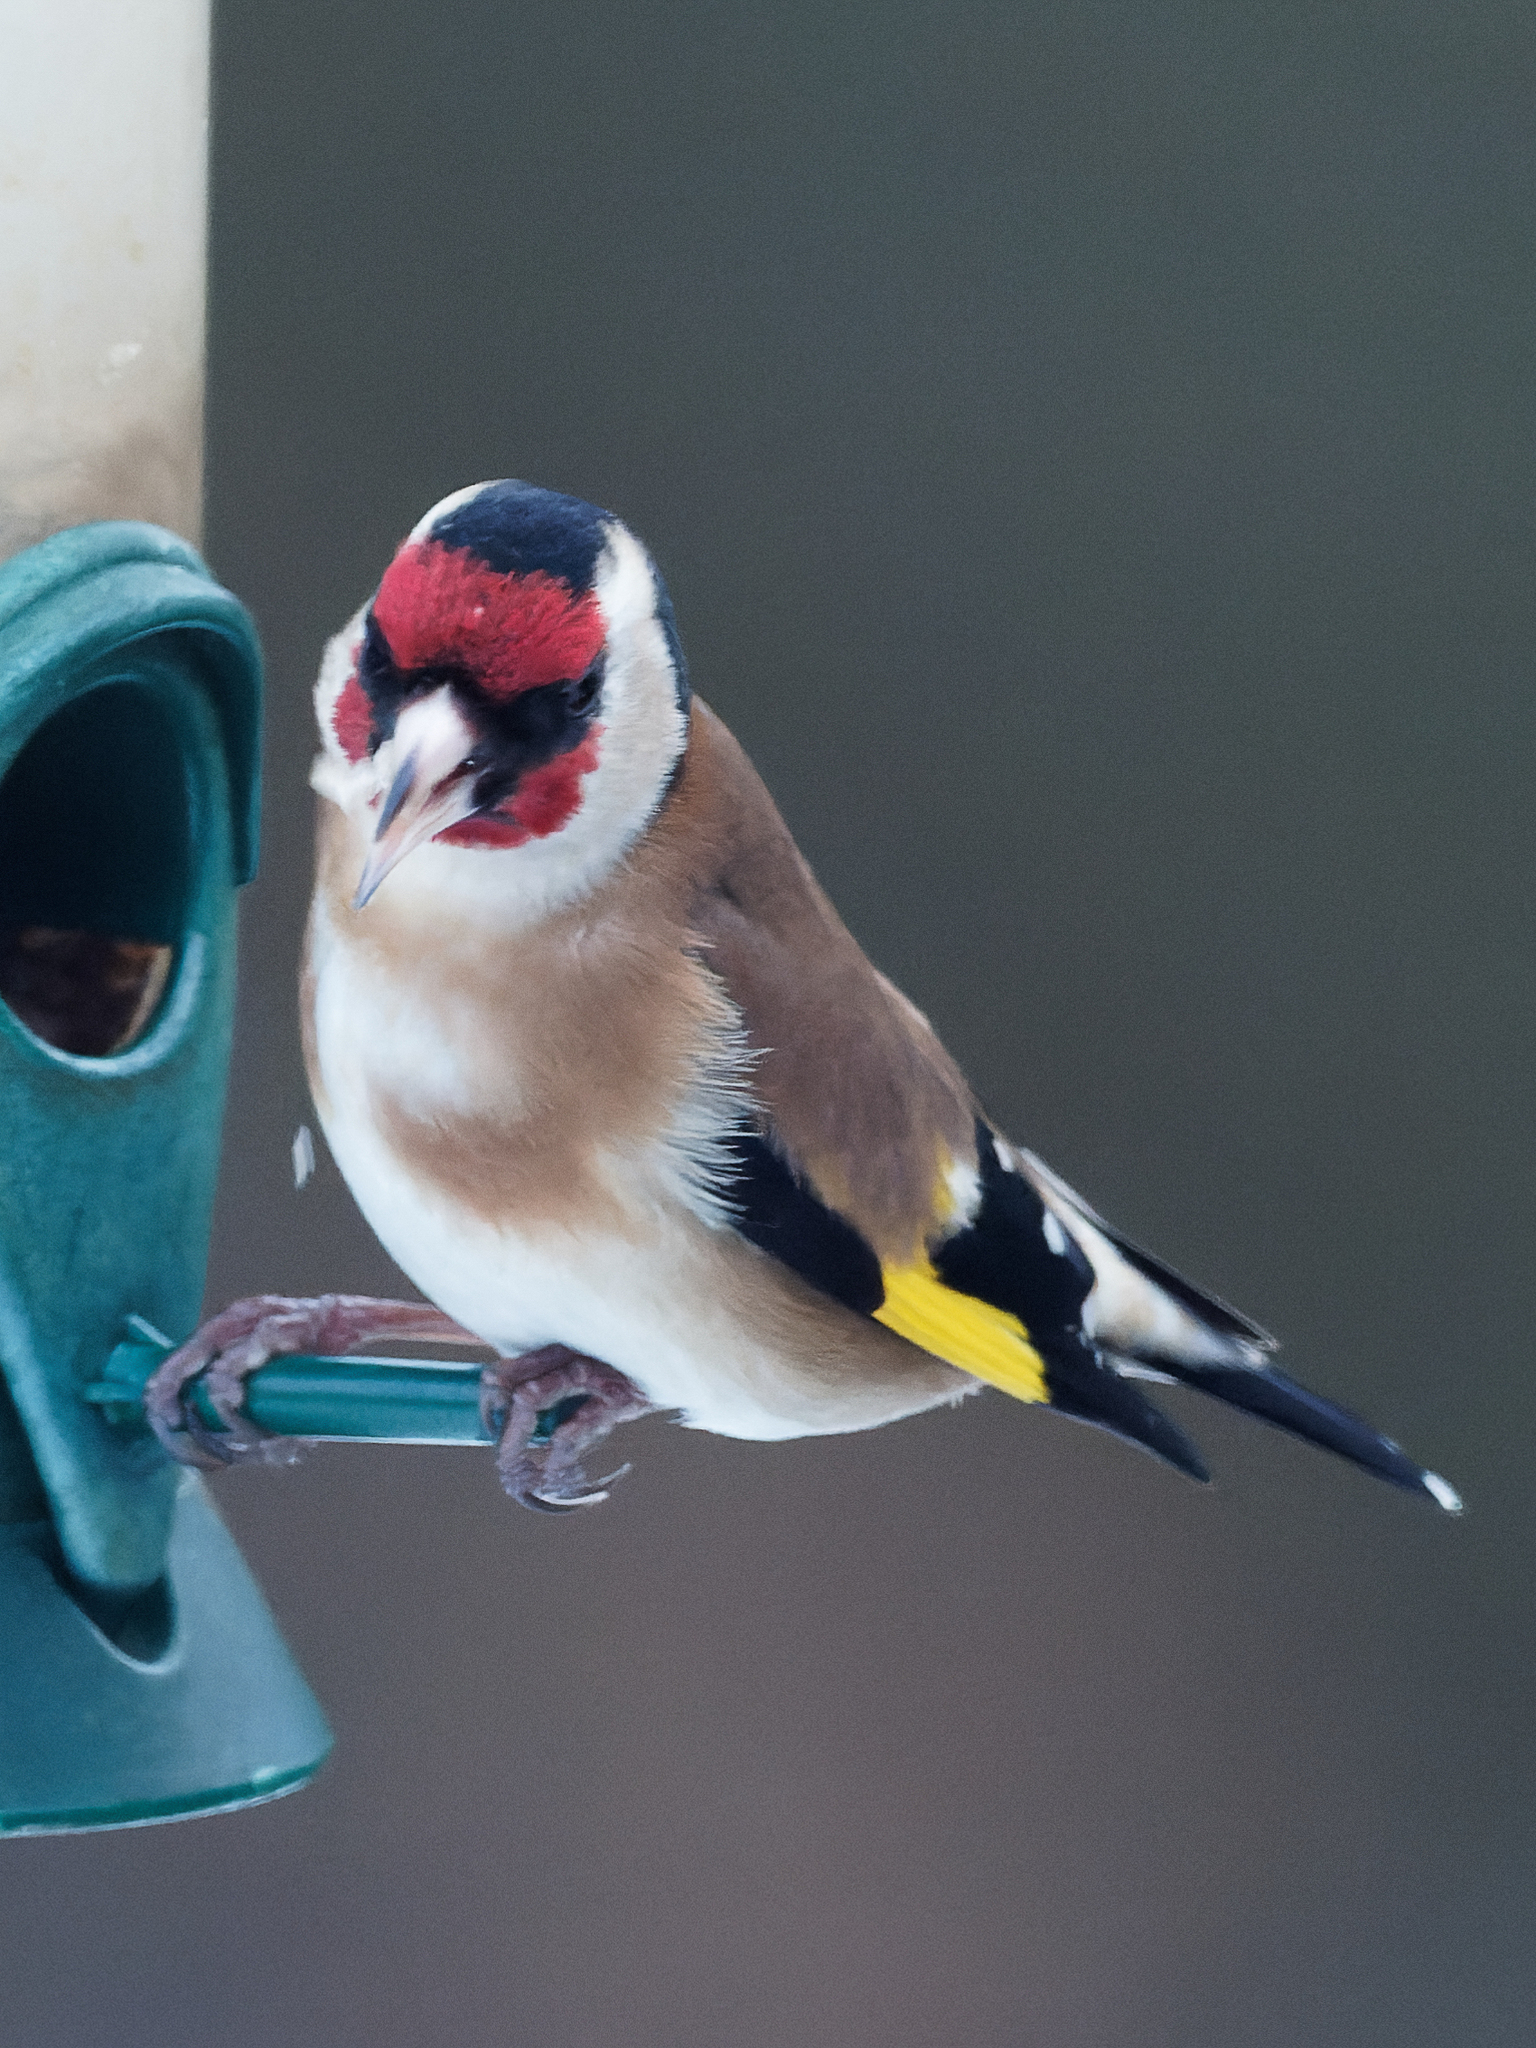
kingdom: Animalia
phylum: Chordata
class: Aves
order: Passeriformes
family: Fringillidae
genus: Carduelis
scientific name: Carduelis carduelis
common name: European goldfinch
